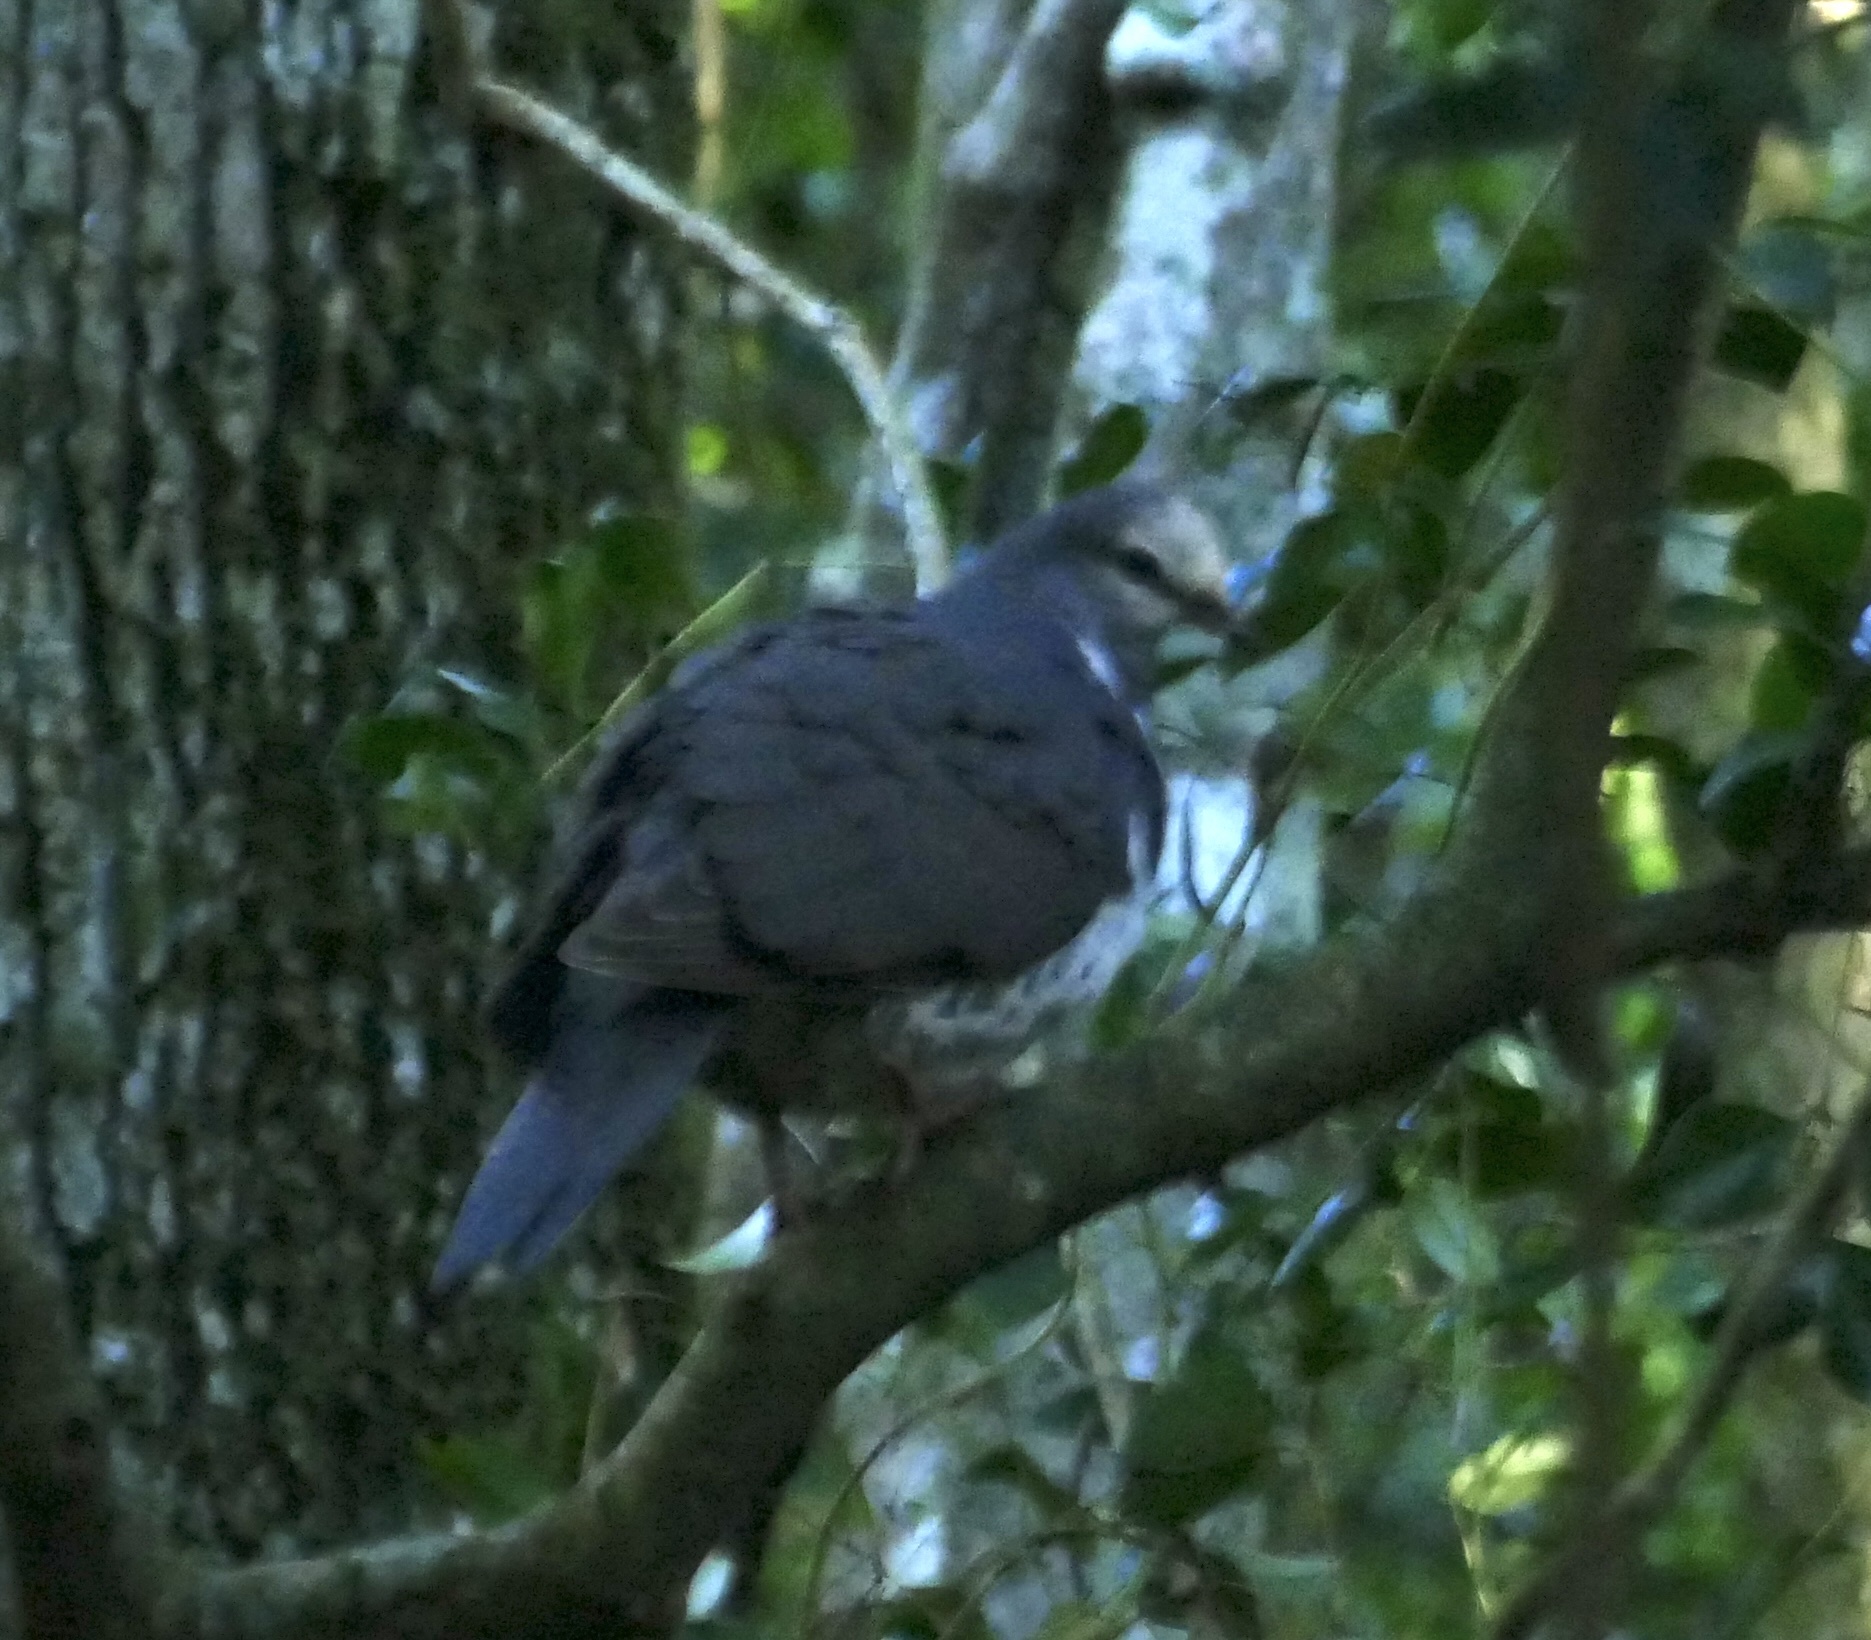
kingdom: Animalia
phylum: Chordata
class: Aves
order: Columbiformes
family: Columbidae
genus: Leucosarcia
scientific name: Leucosarcia melanoleuca
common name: Wonga pigeon
